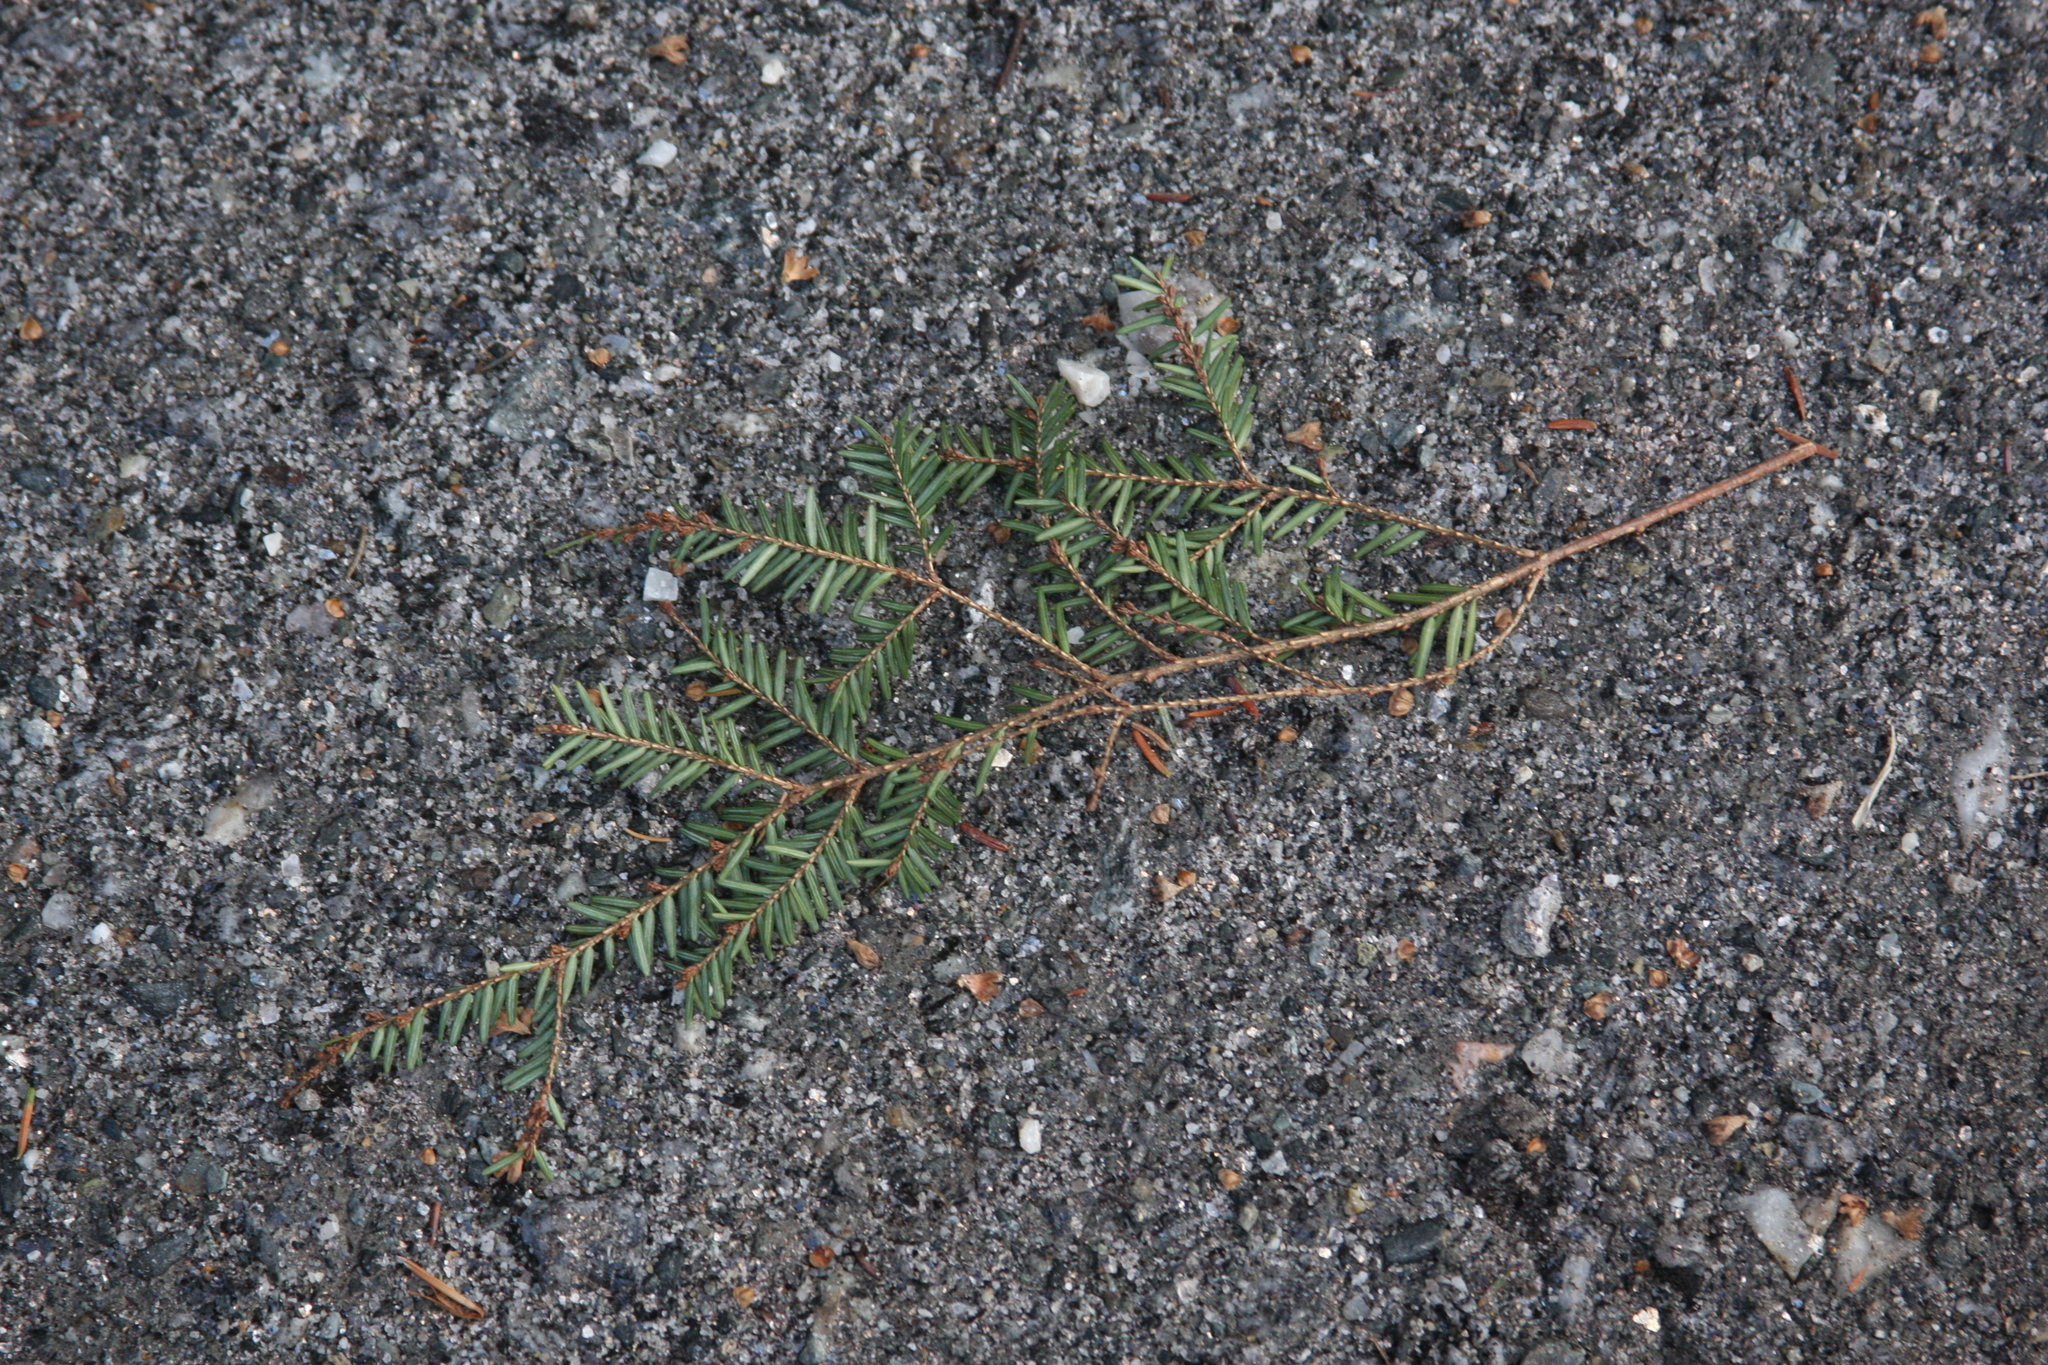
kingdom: Plantae
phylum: Tracheophyta
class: Pinopsida
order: Pinales
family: Pinaceae
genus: Tsuga
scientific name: Tsuga canadensis
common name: Eastern hemlock
